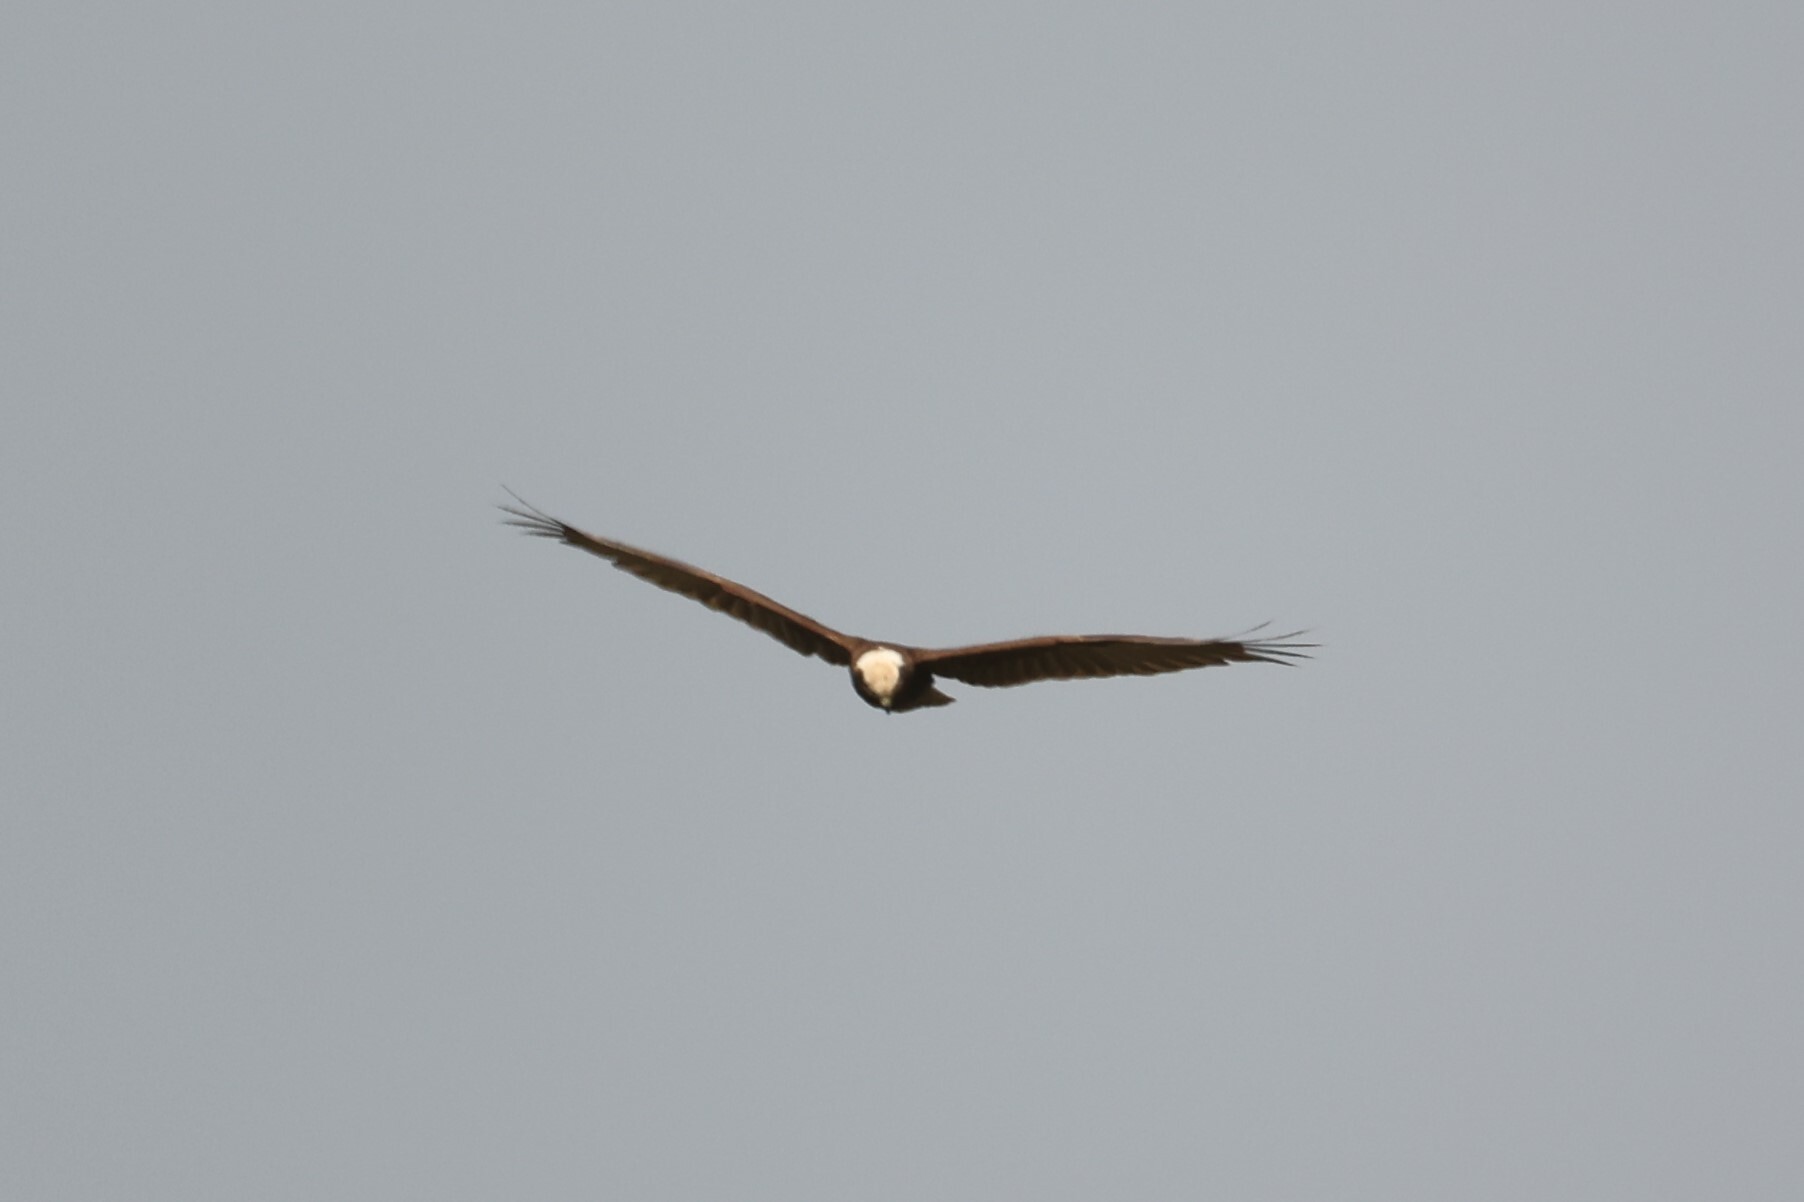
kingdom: Animalia
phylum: Chordata
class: Aves
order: Accipitriformes
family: Accipitridae
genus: Circus
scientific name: Circus aeruginosus
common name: Western marsh harrier
